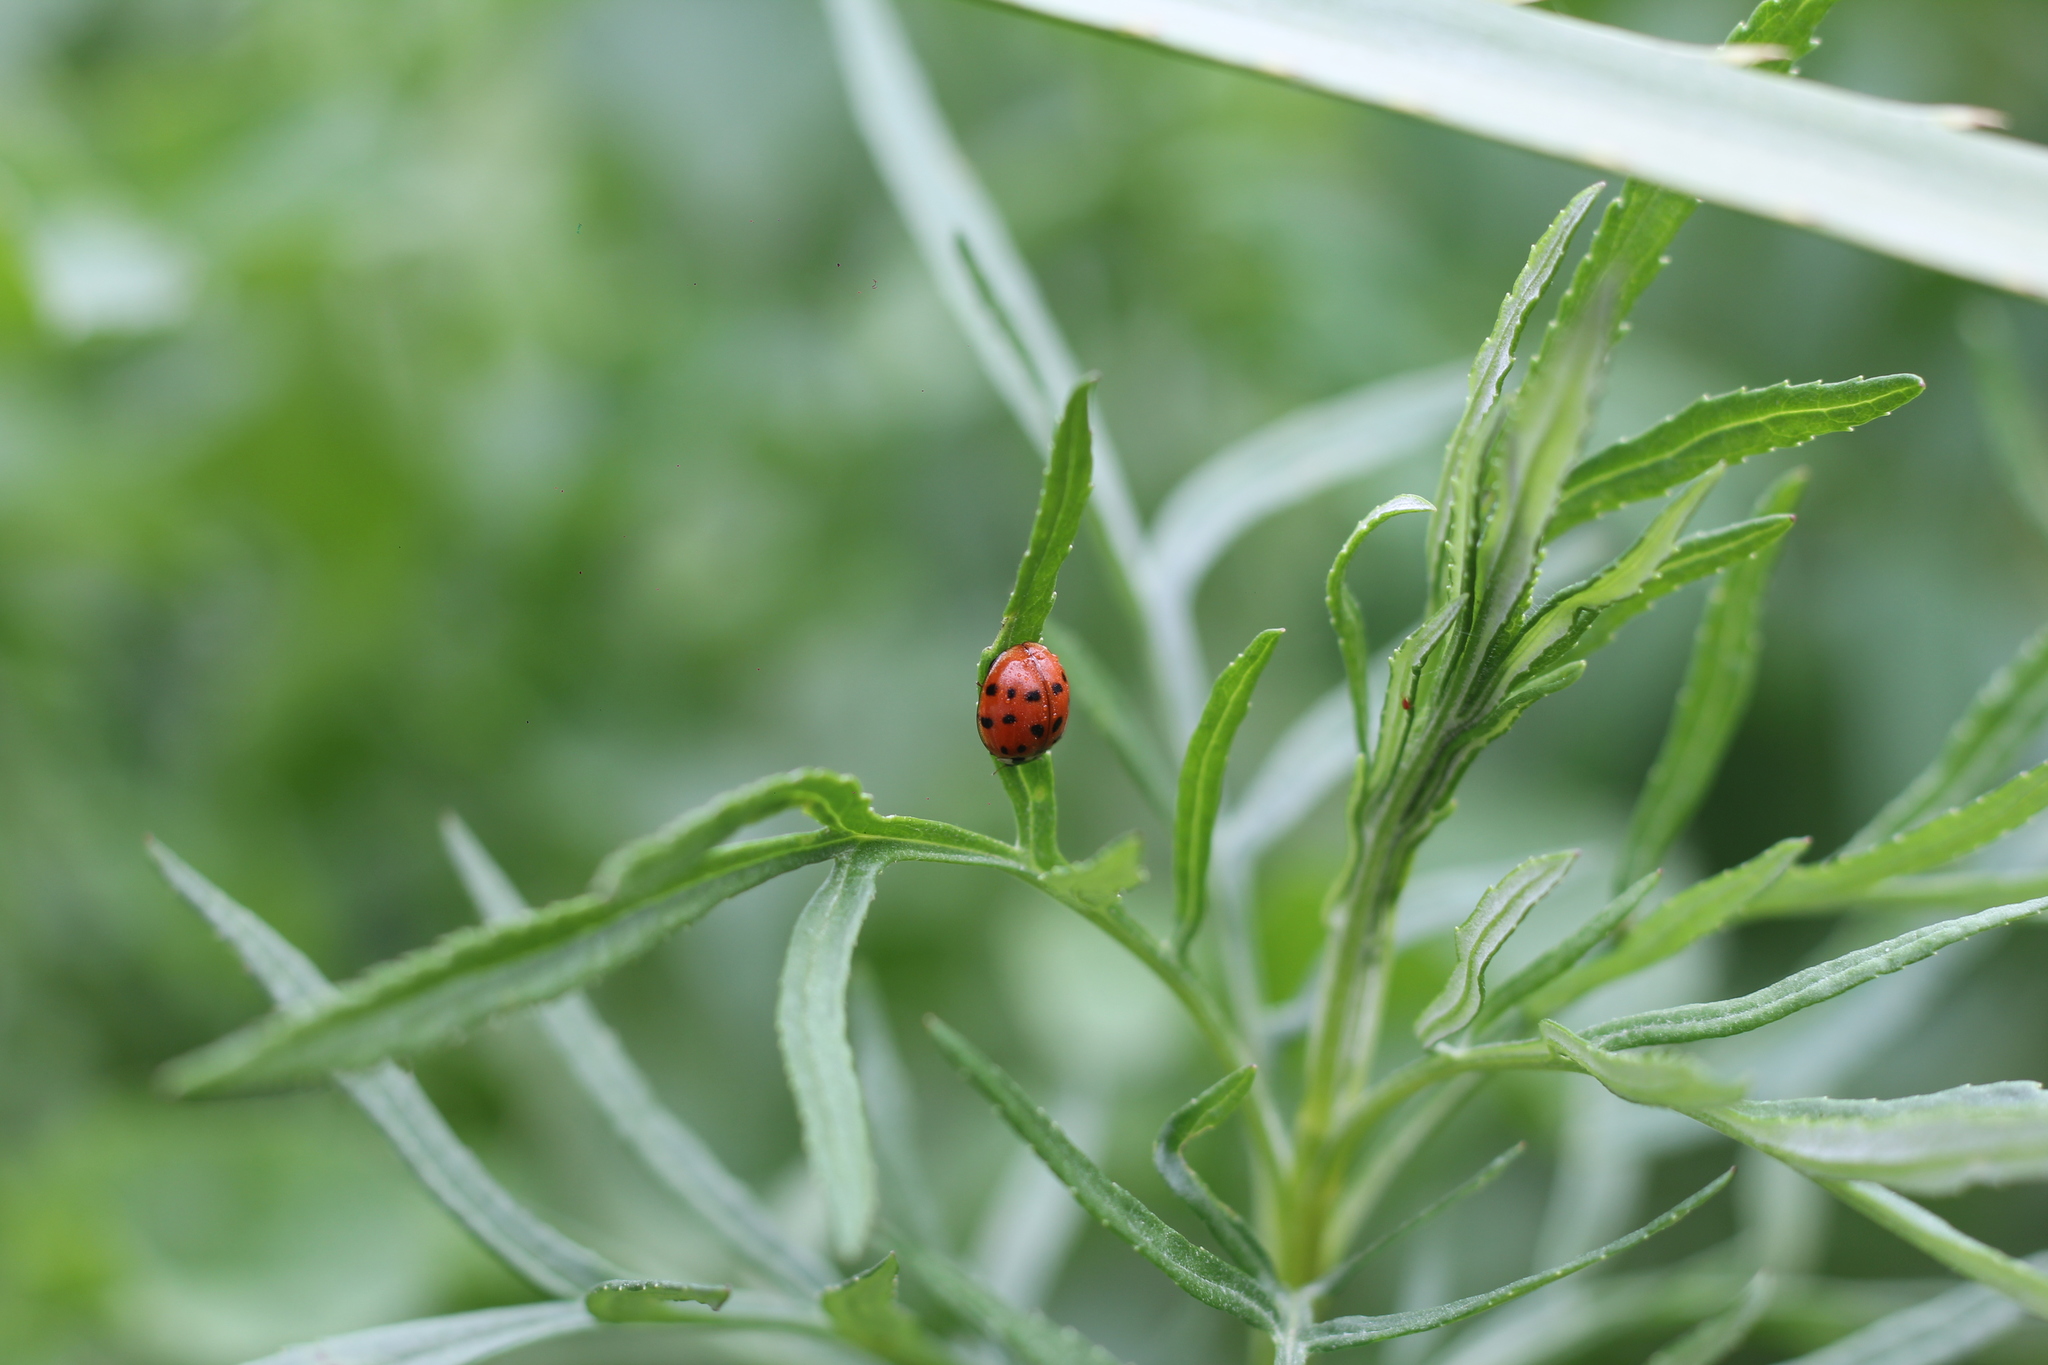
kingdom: Animalia
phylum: Arthropoda
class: Insecta
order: Coleoptera
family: Coccinellidae
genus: Harmonia
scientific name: Harmonia axyridis
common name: Harlequin ladybird
